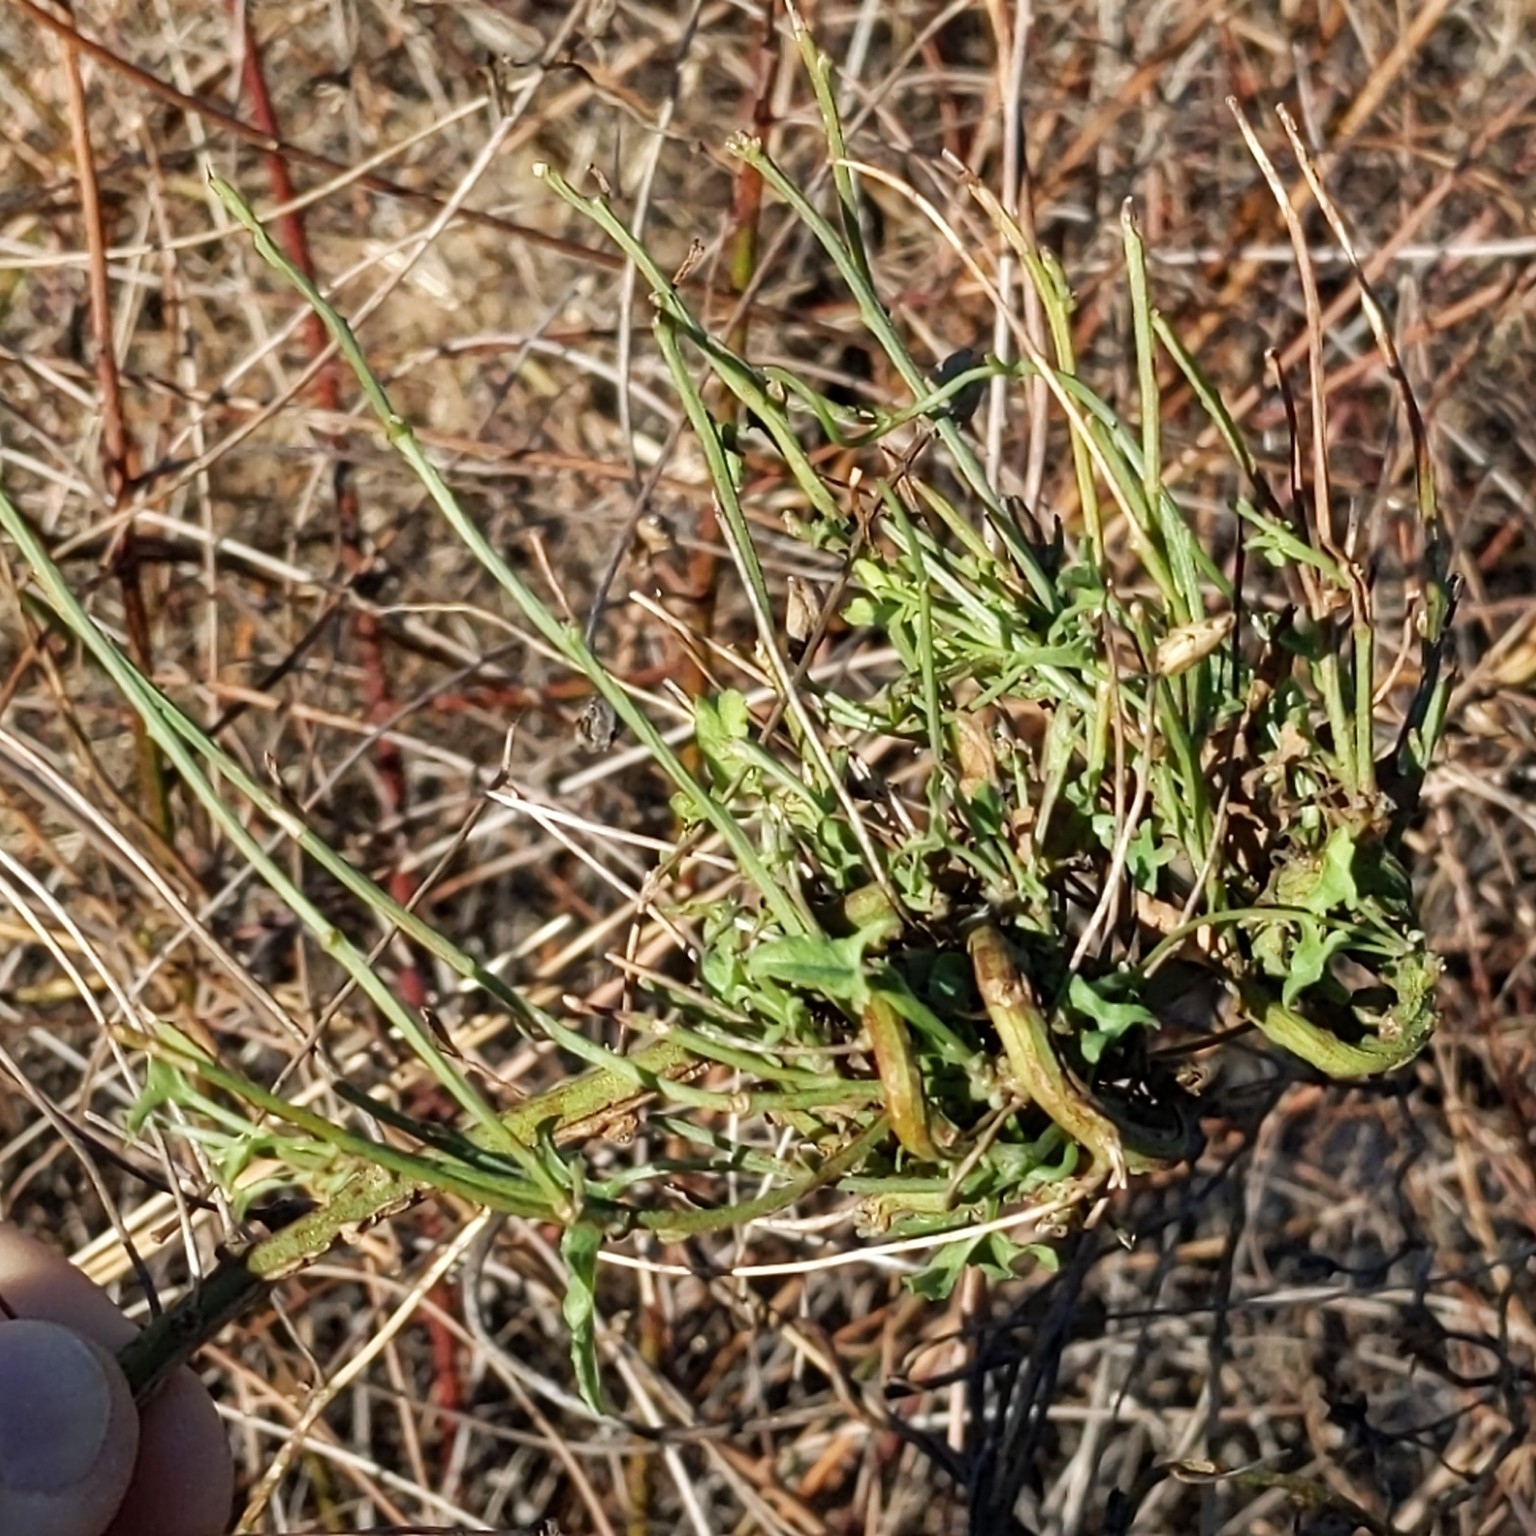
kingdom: Plantae
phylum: Tracheophyta
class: Magnoliopsida
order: Solanales
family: Convolvulaceae
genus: Calystegia
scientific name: Calystegia macrostegia
